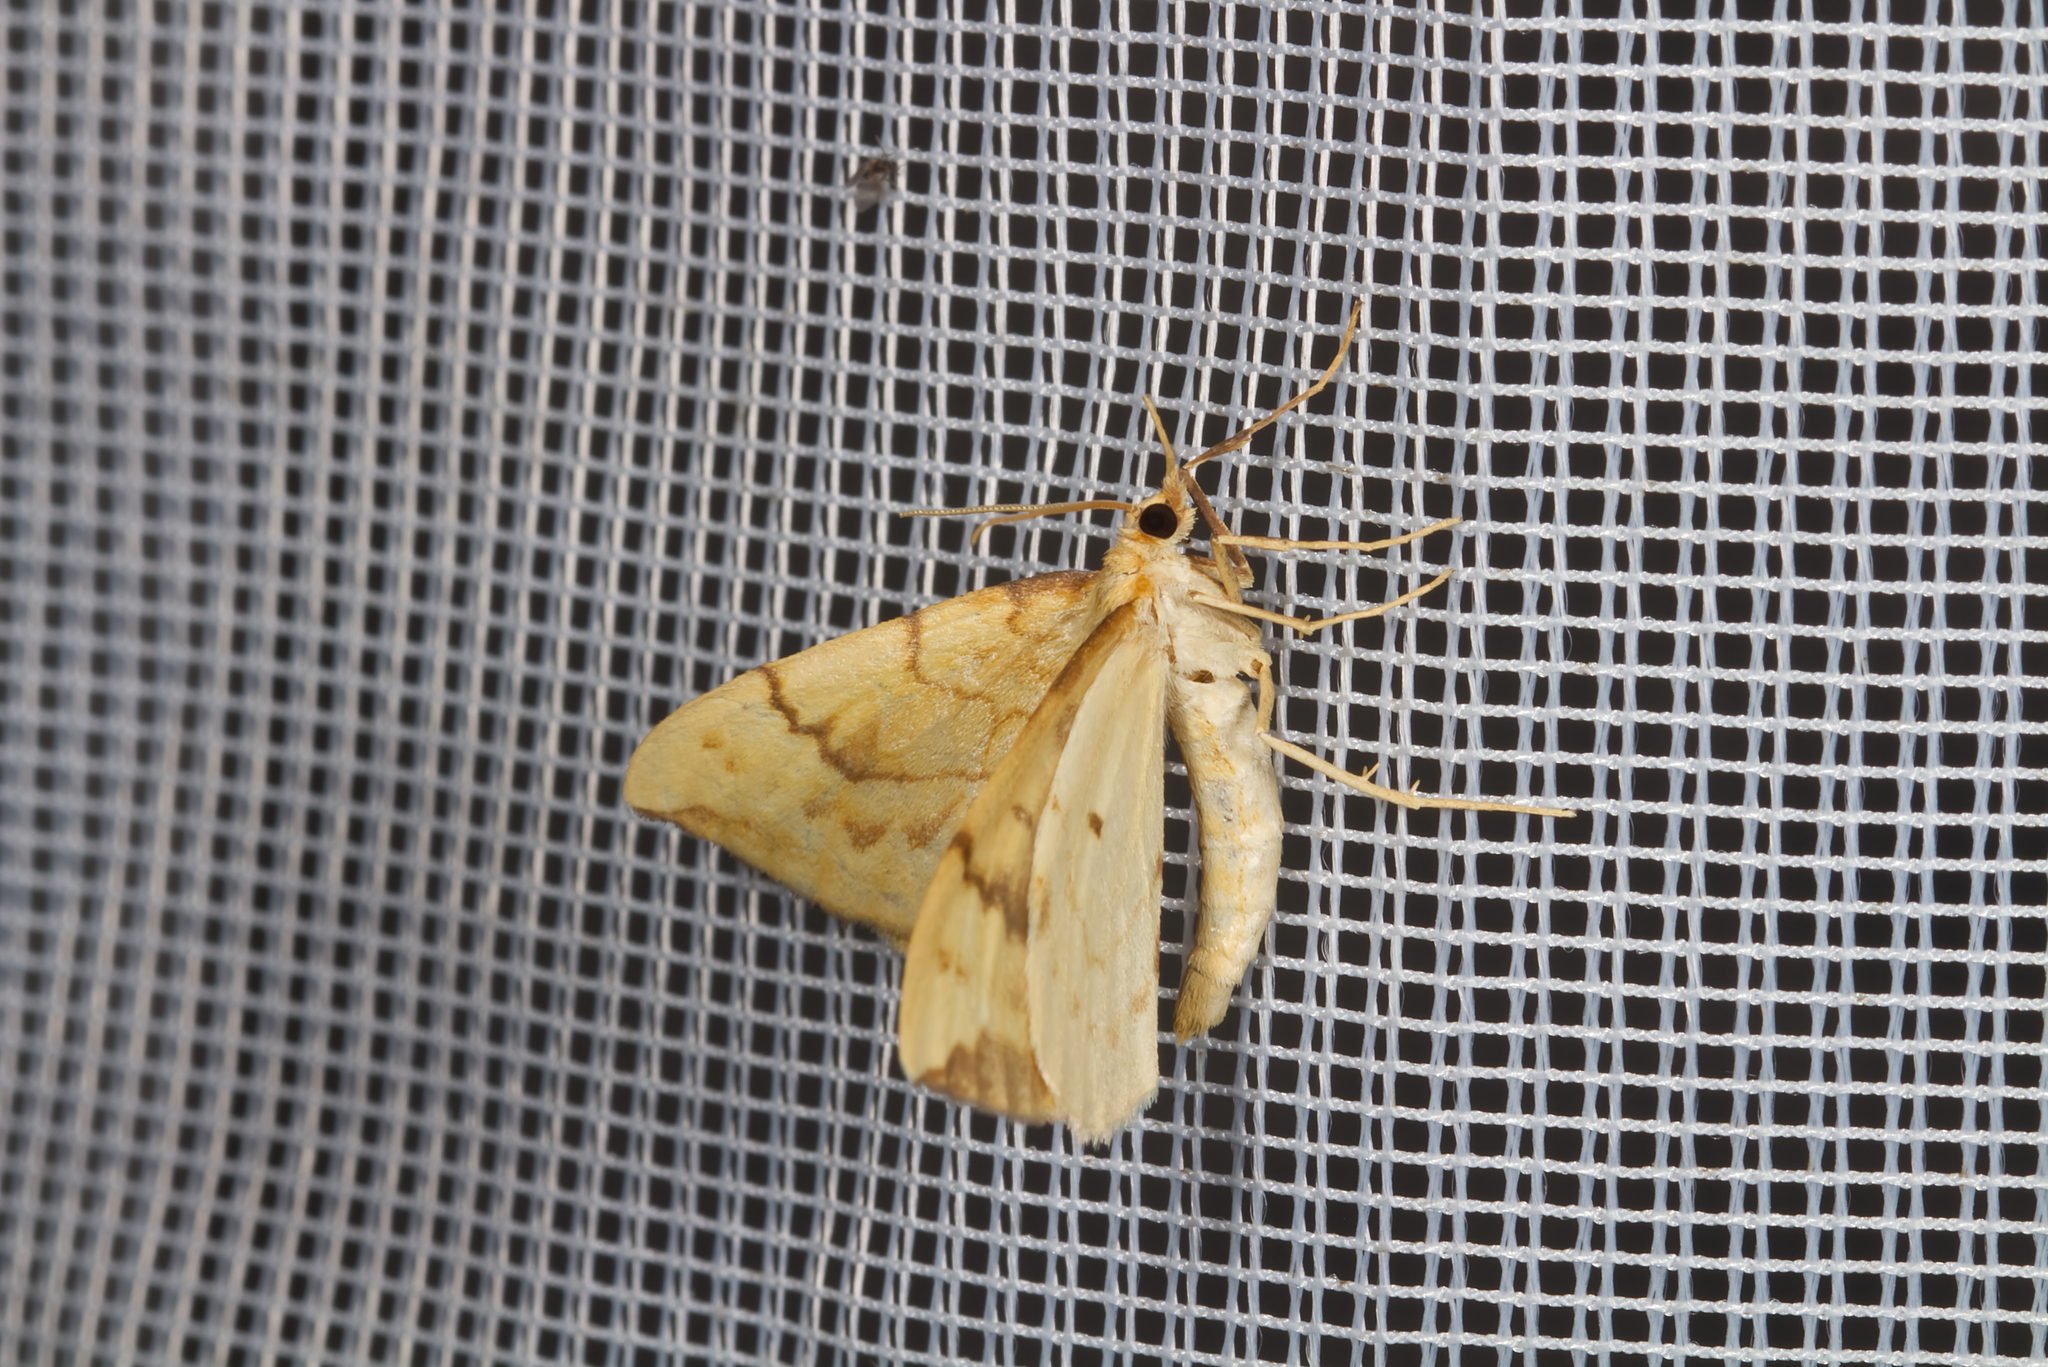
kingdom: Animalia
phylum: Arthropoda
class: Insecta
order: Lepidoptera
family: Geometridae
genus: Eulithis
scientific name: Eulithis pyraliata
